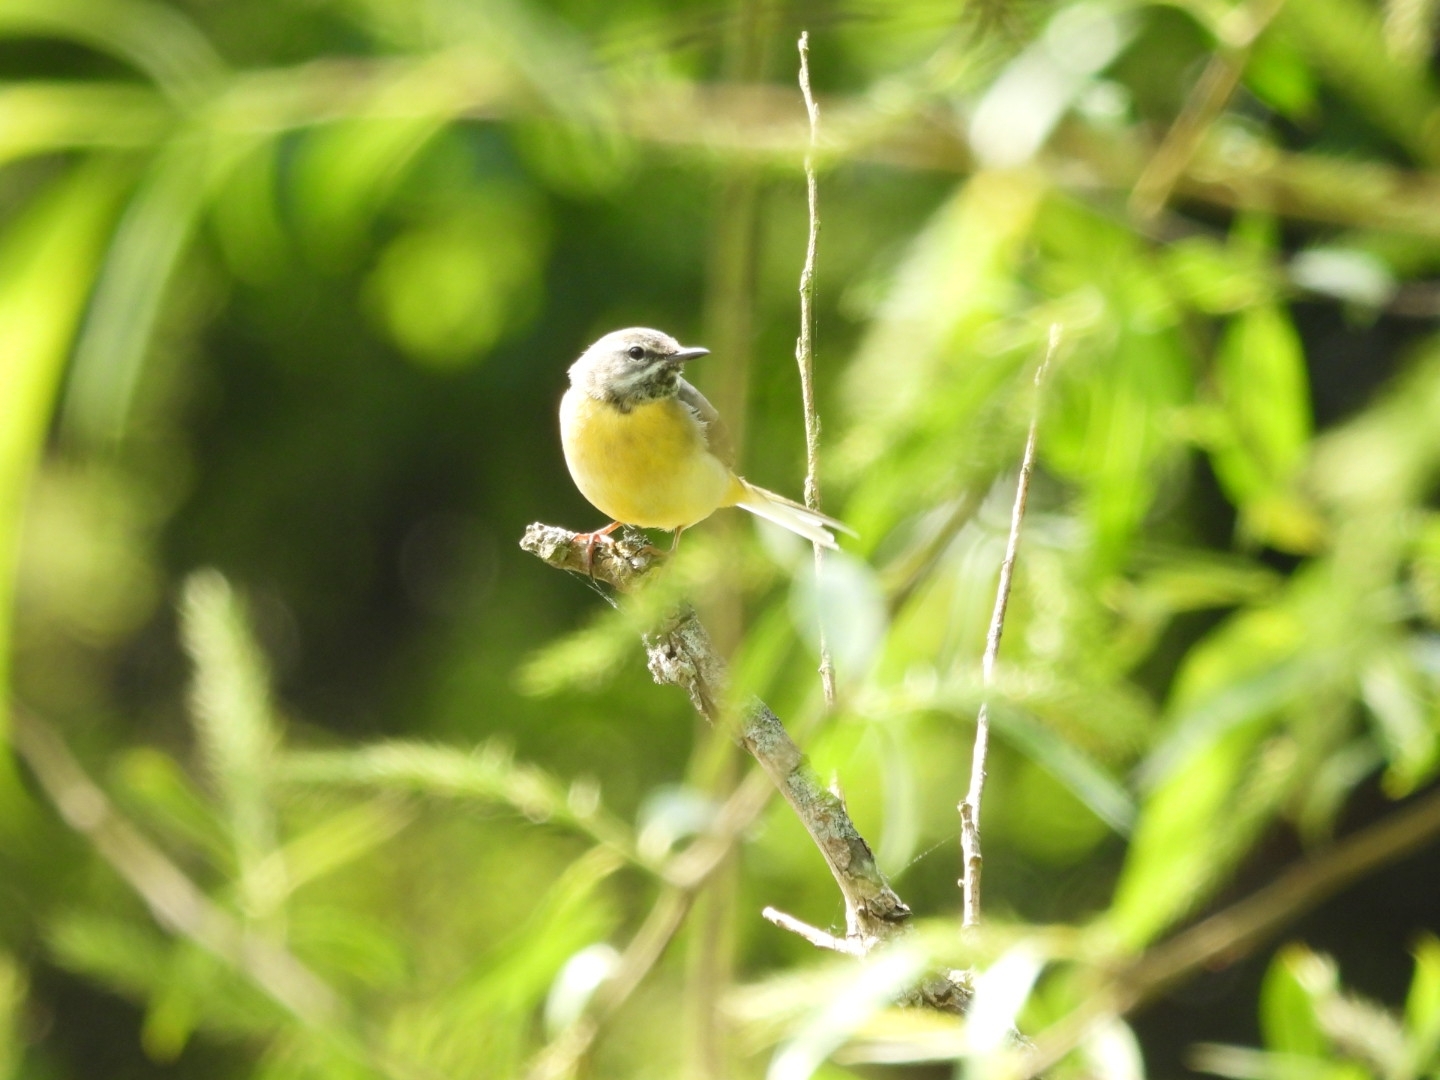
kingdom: Animalia
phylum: Chordata
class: Aves
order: Passeriformes
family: Motacillidae
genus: Motacilla
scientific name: Motacilla cinerea
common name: Grey wagtail
